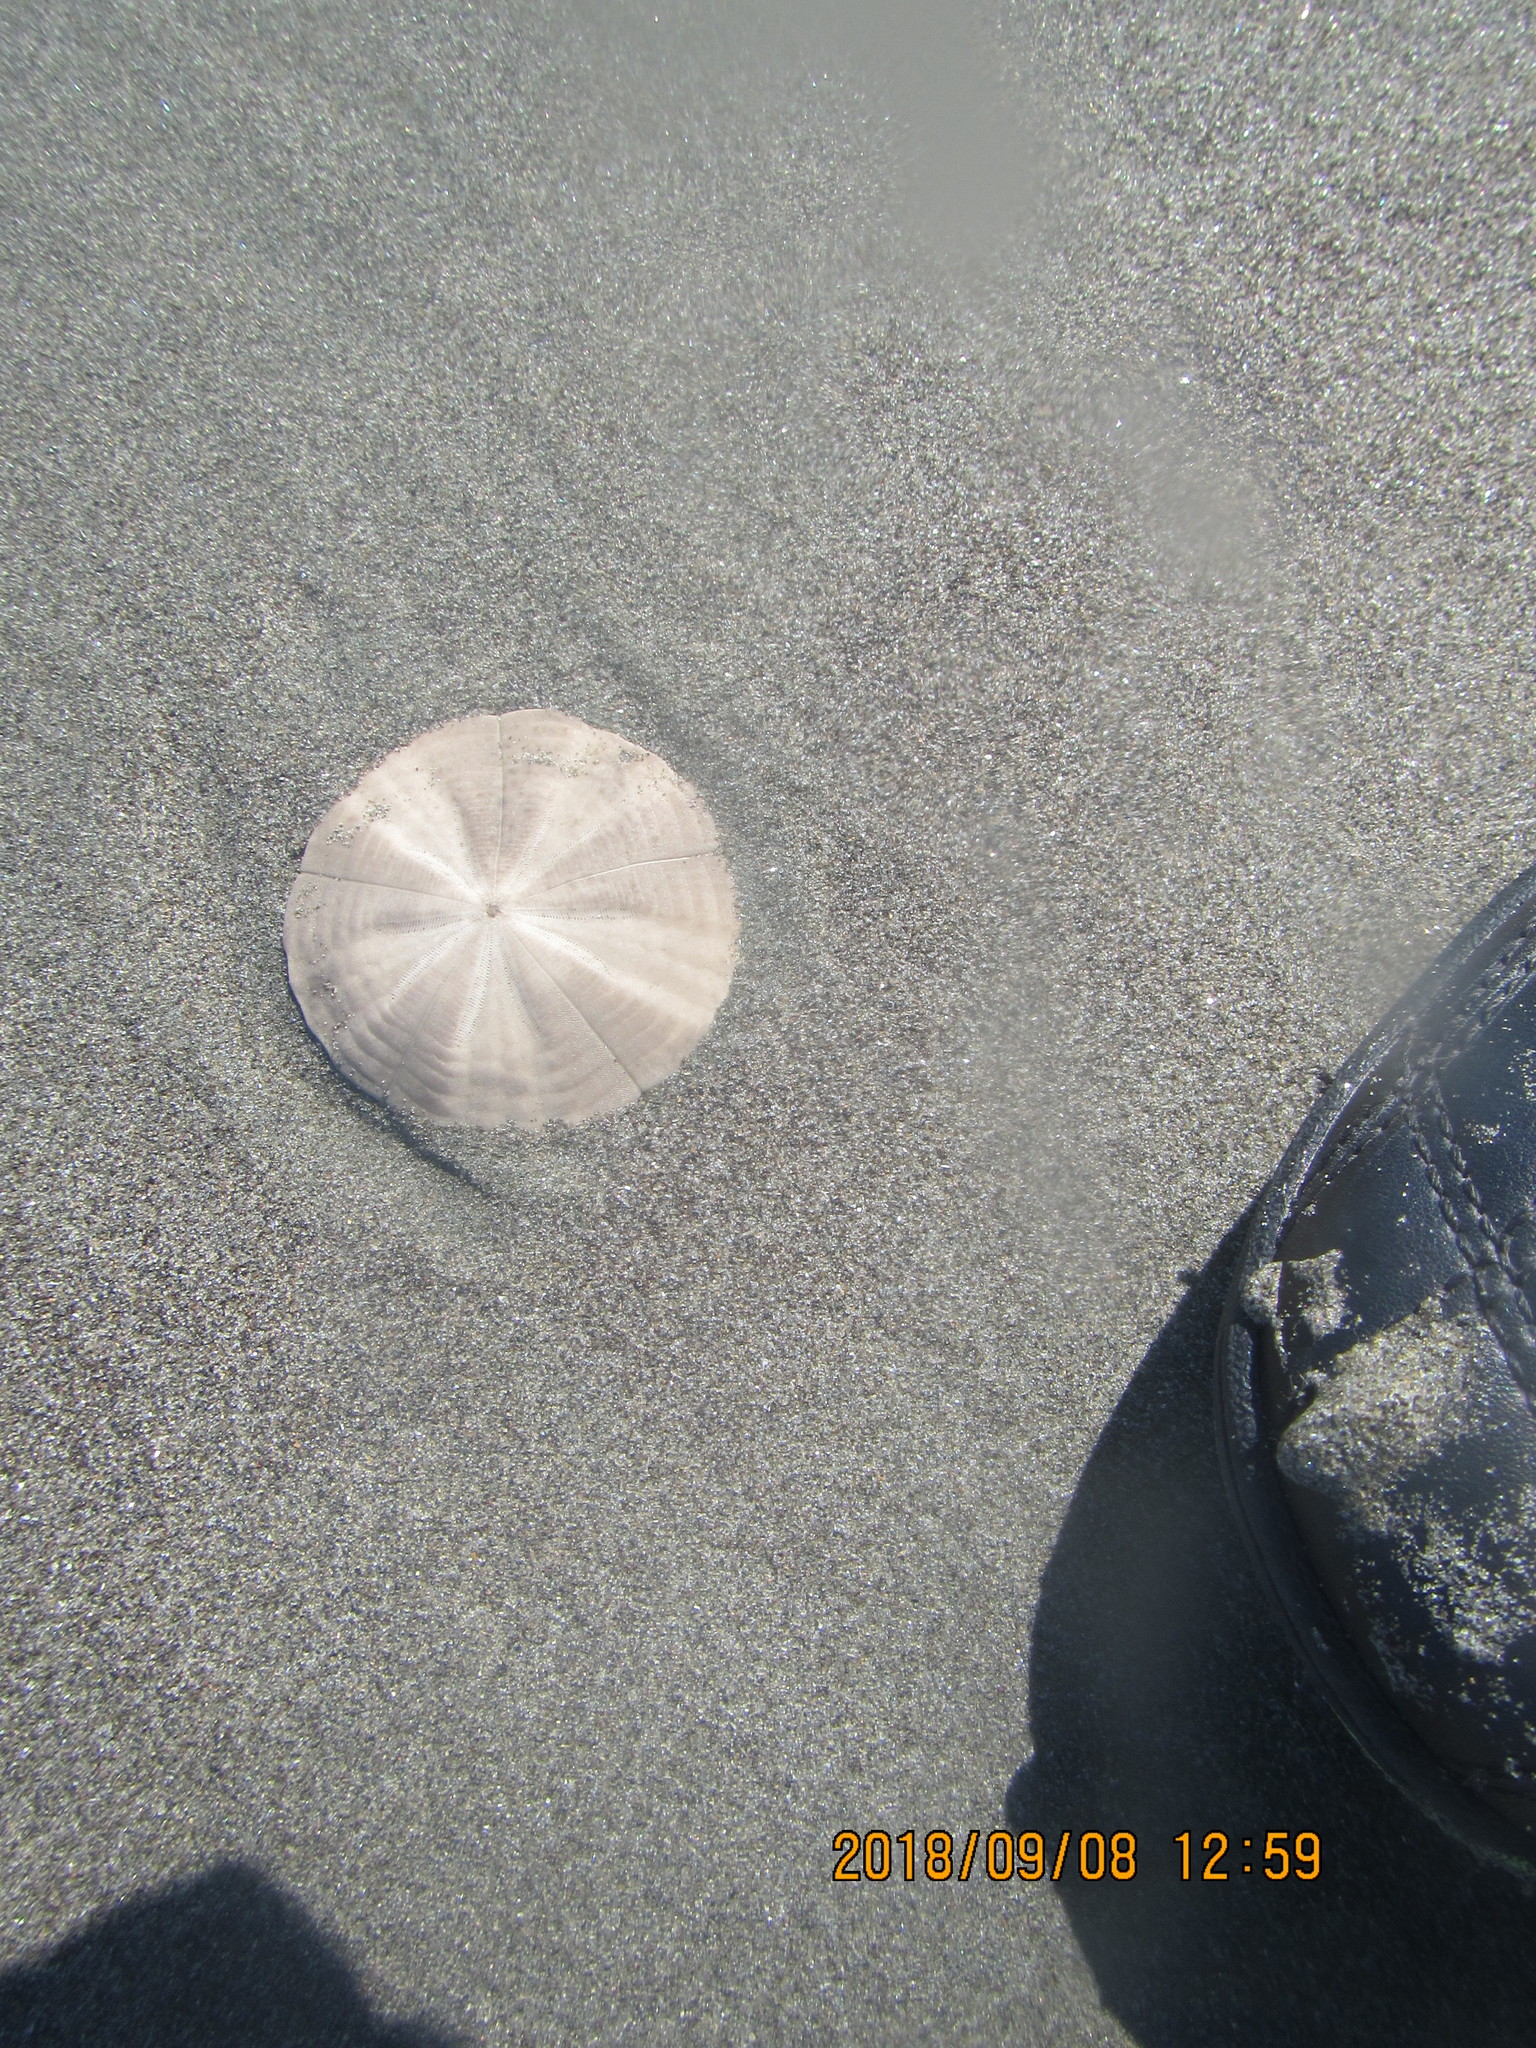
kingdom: Animalia
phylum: Echinodermata
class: Echinoidea
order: Clypeasteroida
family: Clypeasteridae
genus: Fellaster
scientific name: Fellaster zelandiae
